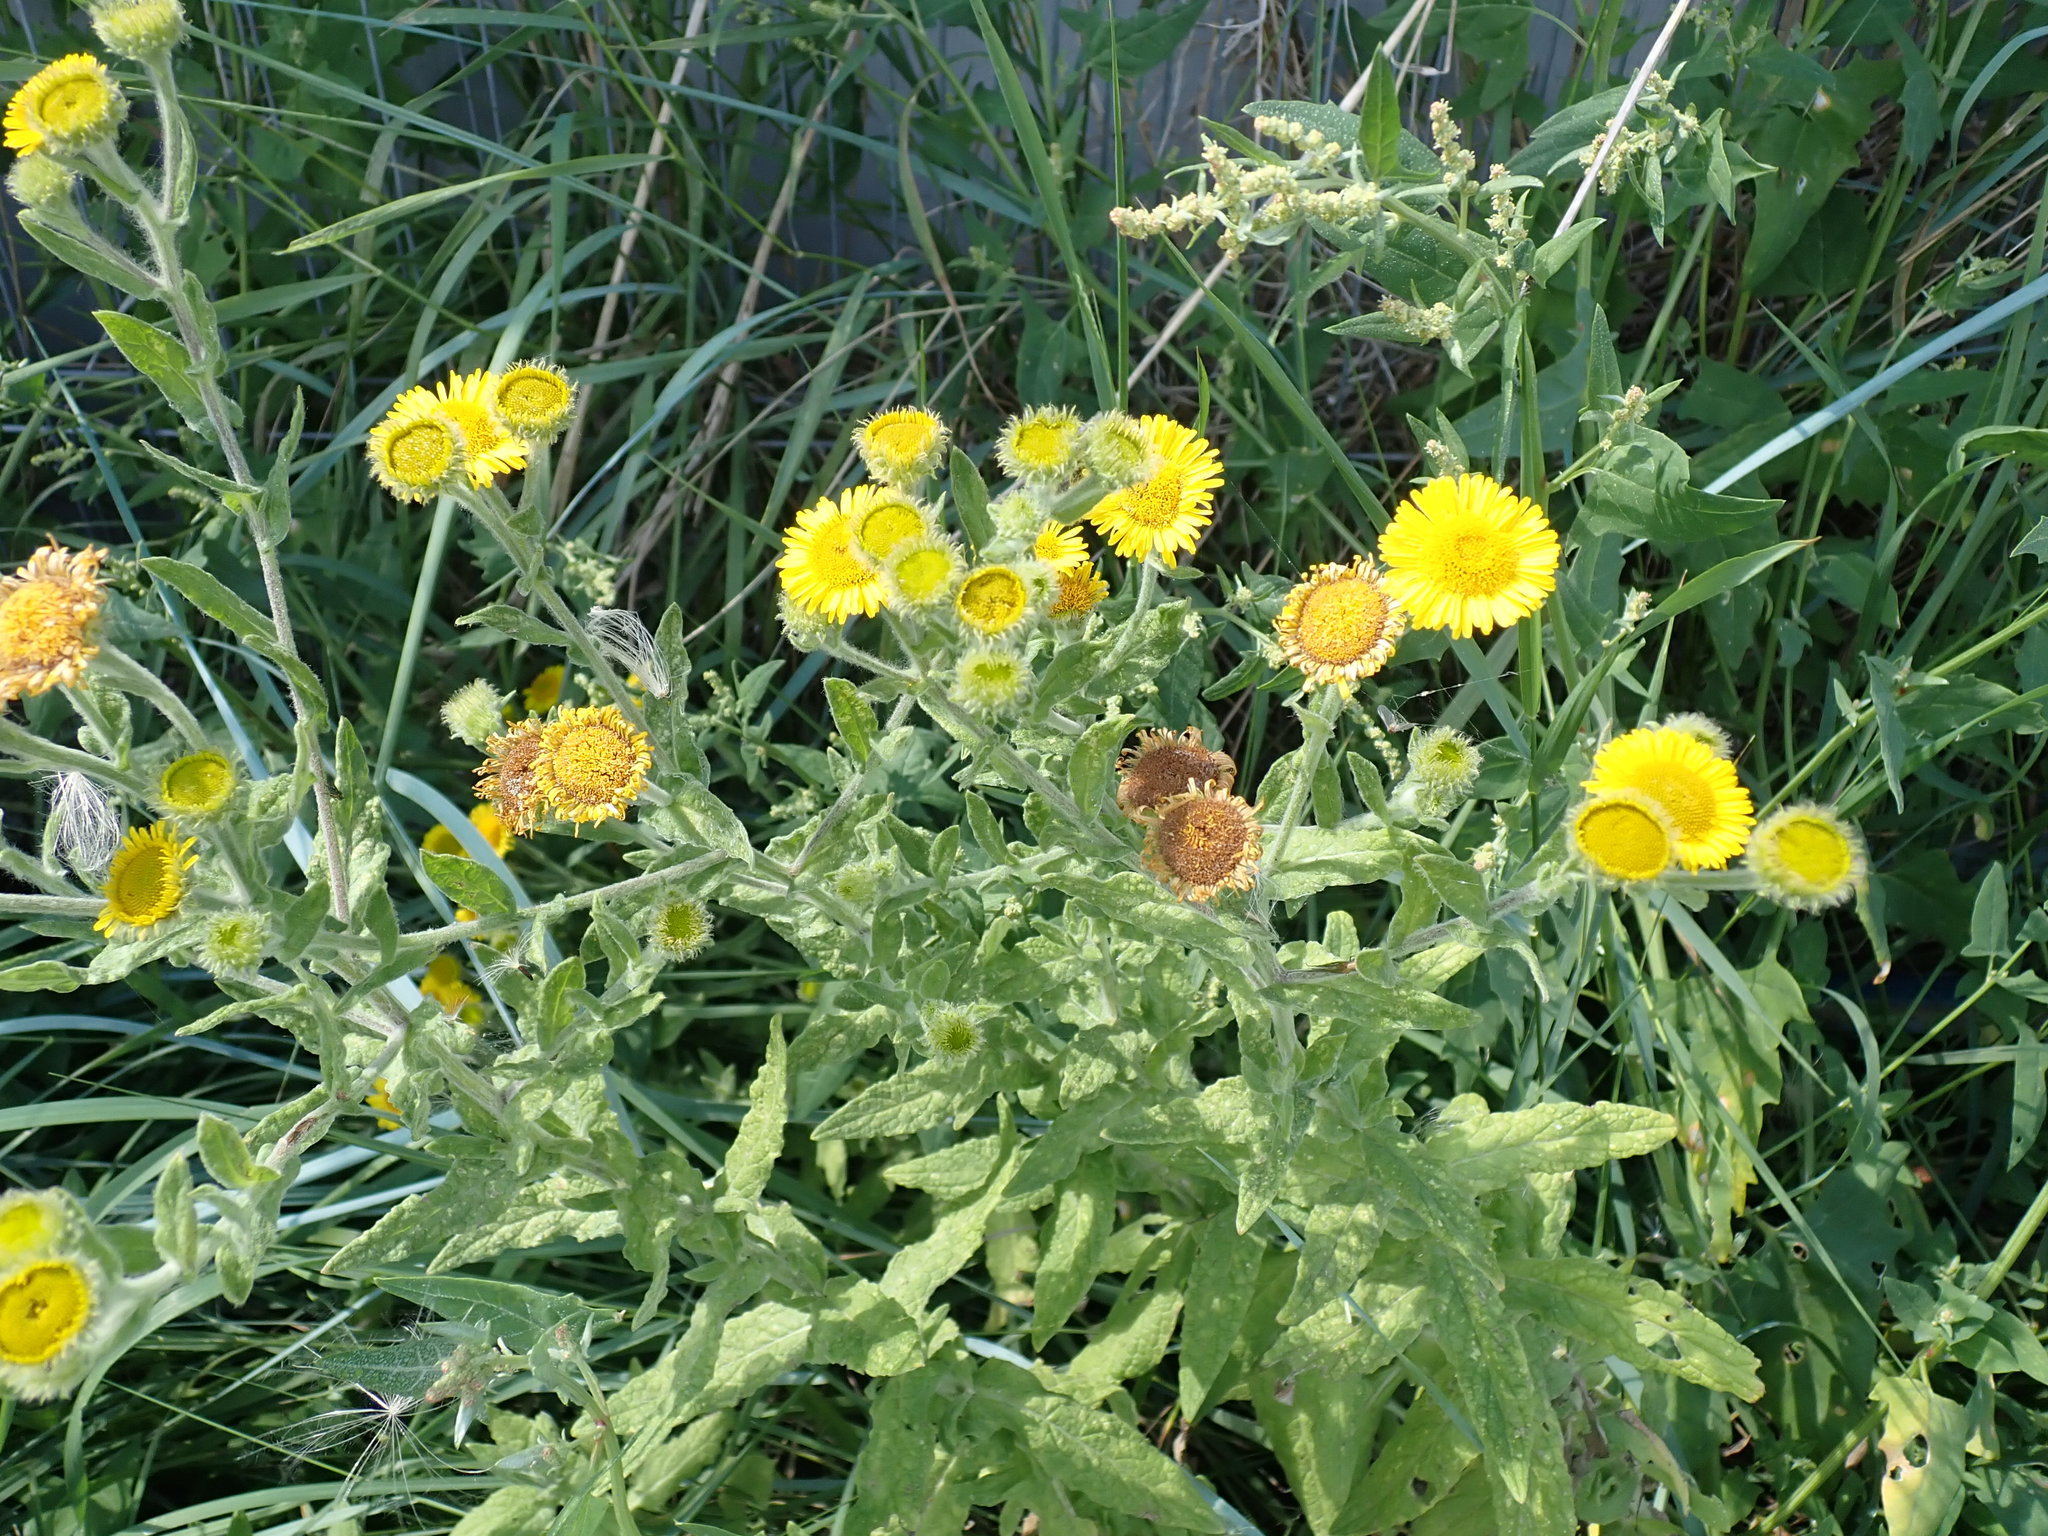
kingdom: Plantae
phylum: Tracheophyta
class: Magnoliopsida
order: Asterales
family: Asteraceae
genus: Pulicaria
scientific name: Pulicaria dysenterica
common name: Common fleabane
